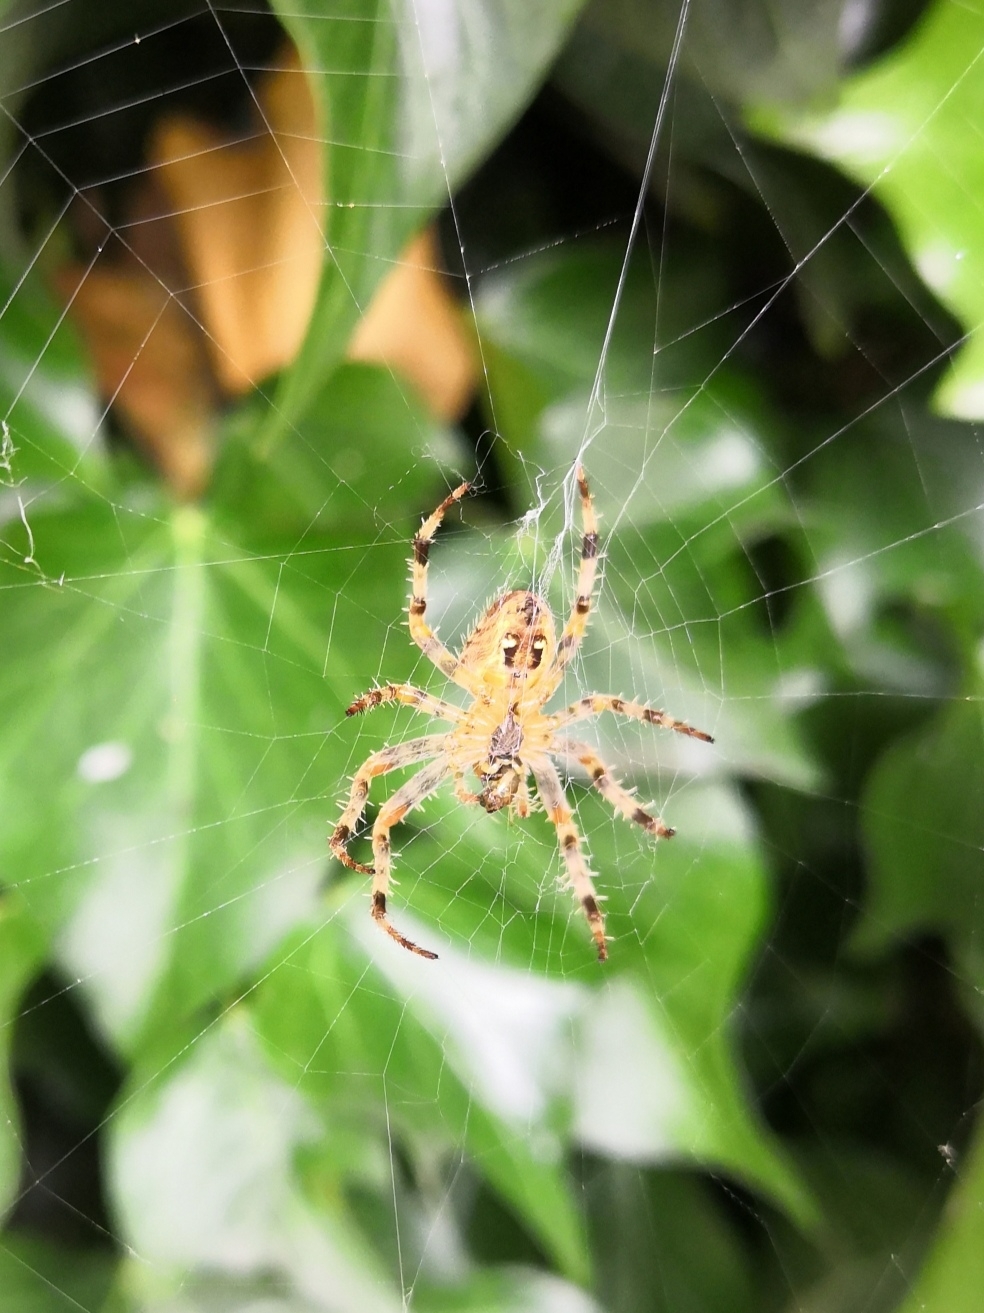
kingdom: Animalia
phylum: Arthropoda
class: Arachnida
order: Araneae
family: Araneidae
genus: Araneus
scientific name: Araneus diadematus
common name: Cross orbweaver
